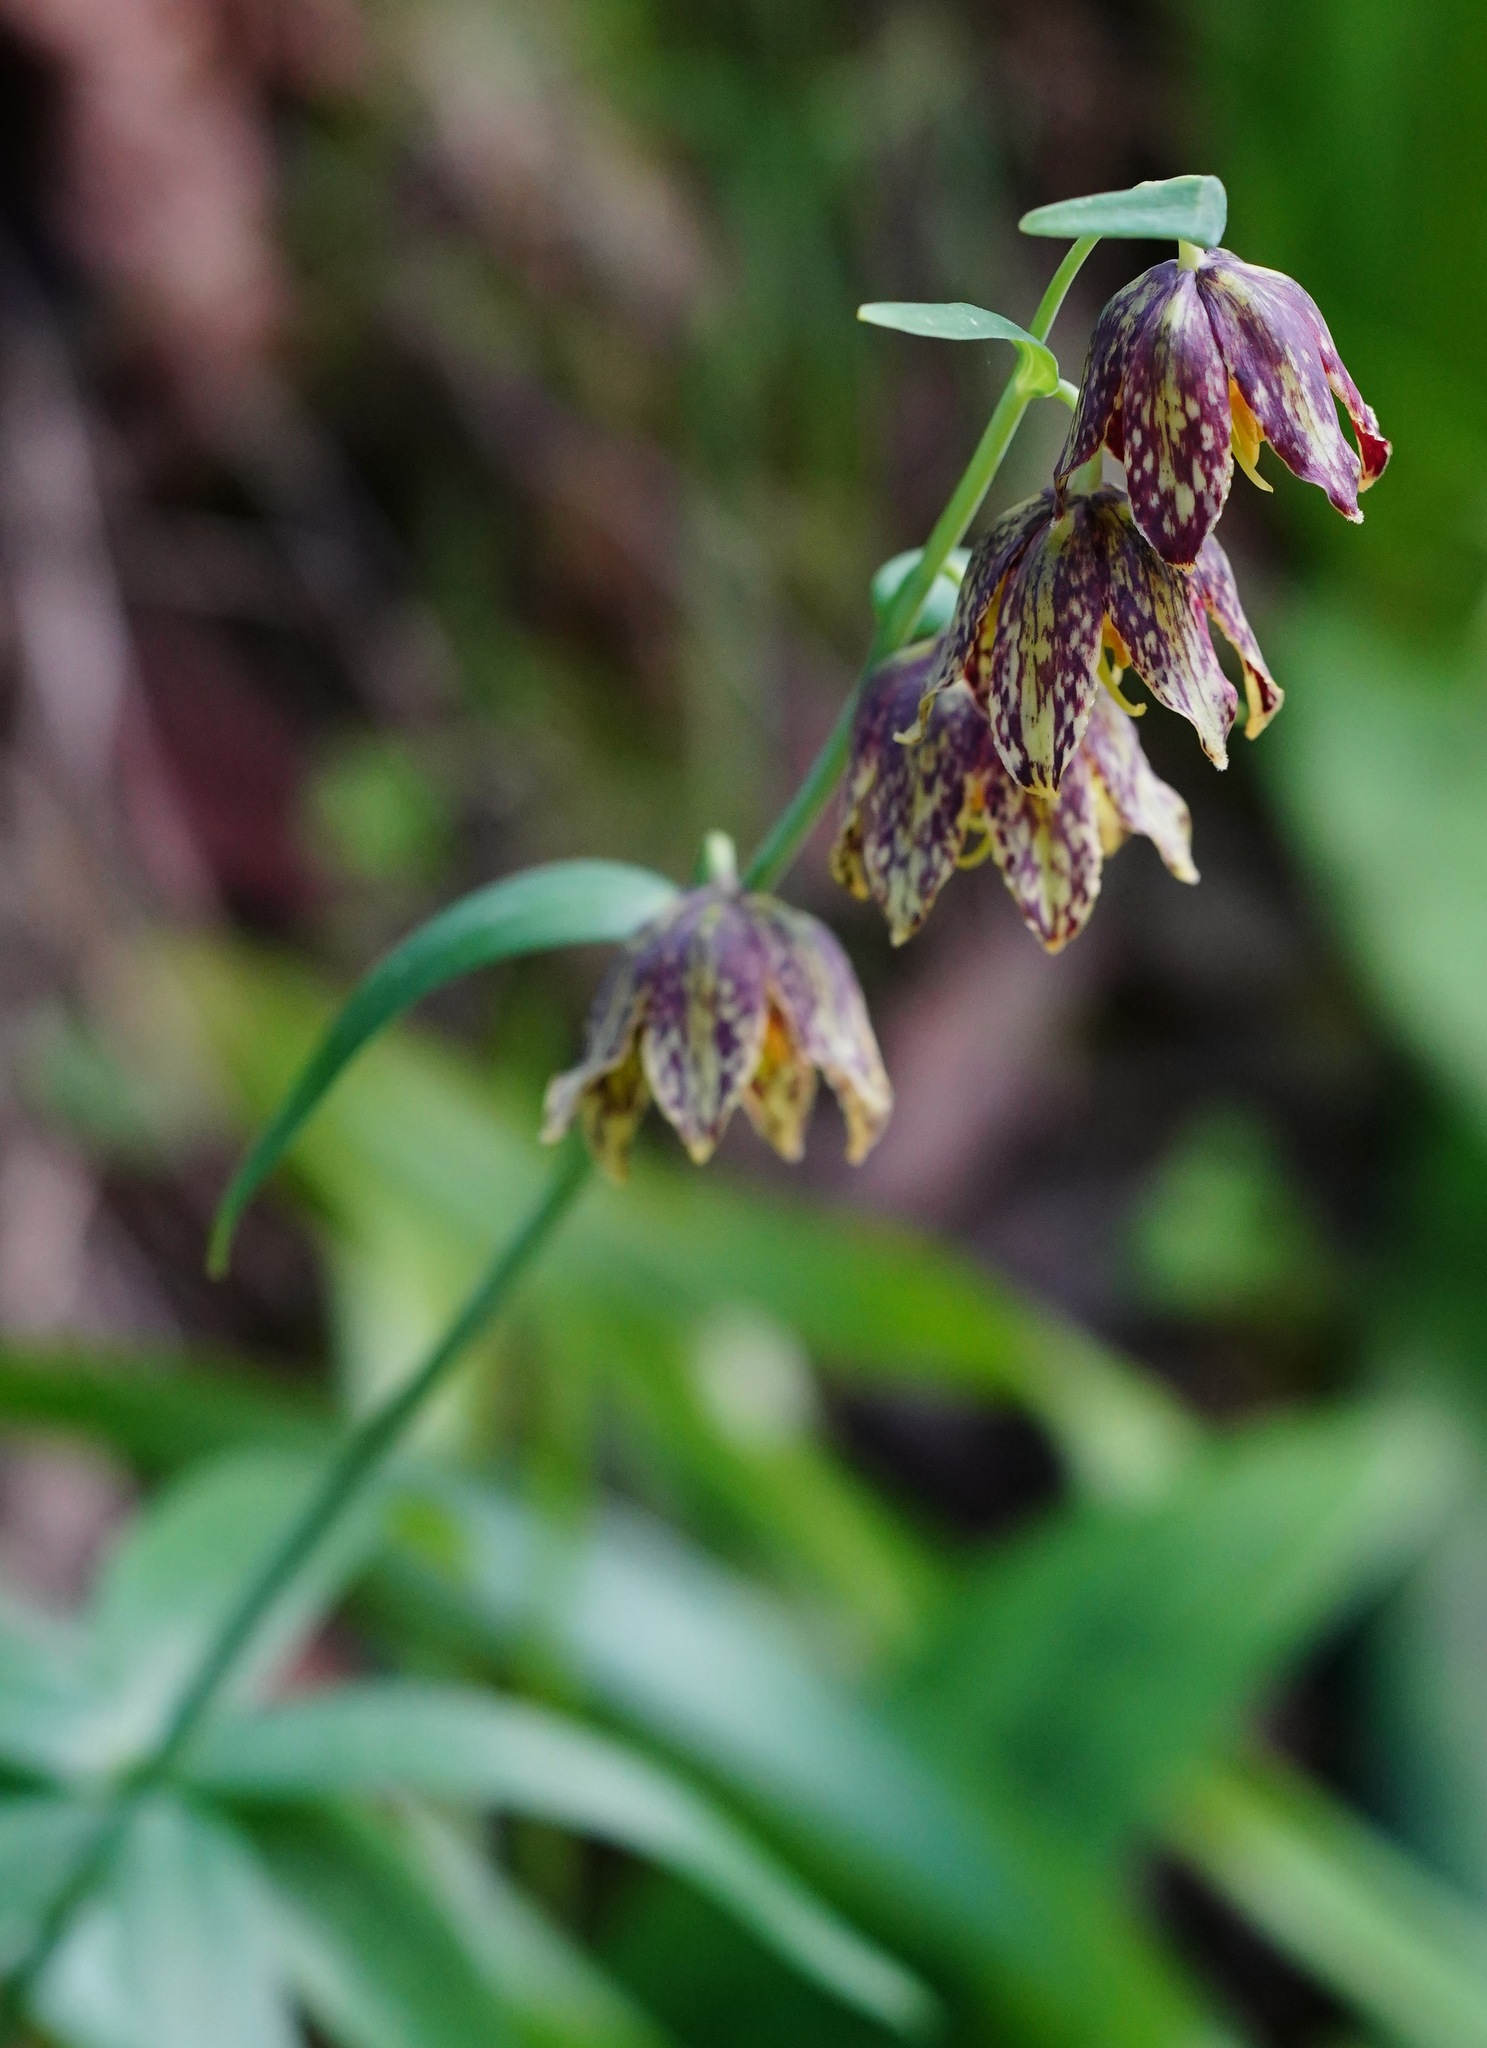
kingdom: Plantae
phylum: Tracheophyta
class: Liliopsida
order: Liliales
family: Liliaceae
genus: Fritillaria
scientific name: Fritillaria affinis
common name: Ojai fritillary
